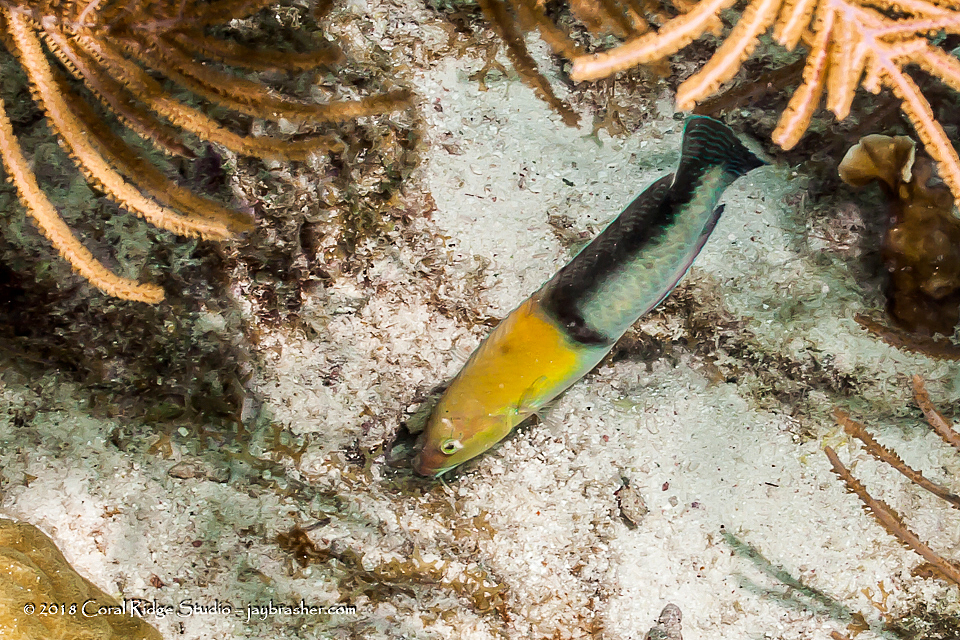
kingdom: Animalia
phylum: Chordata
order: Perciformes
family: Labridae
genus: Halichoeres
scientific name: Halichoeres garnoti
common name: Yellowhead wrasse
